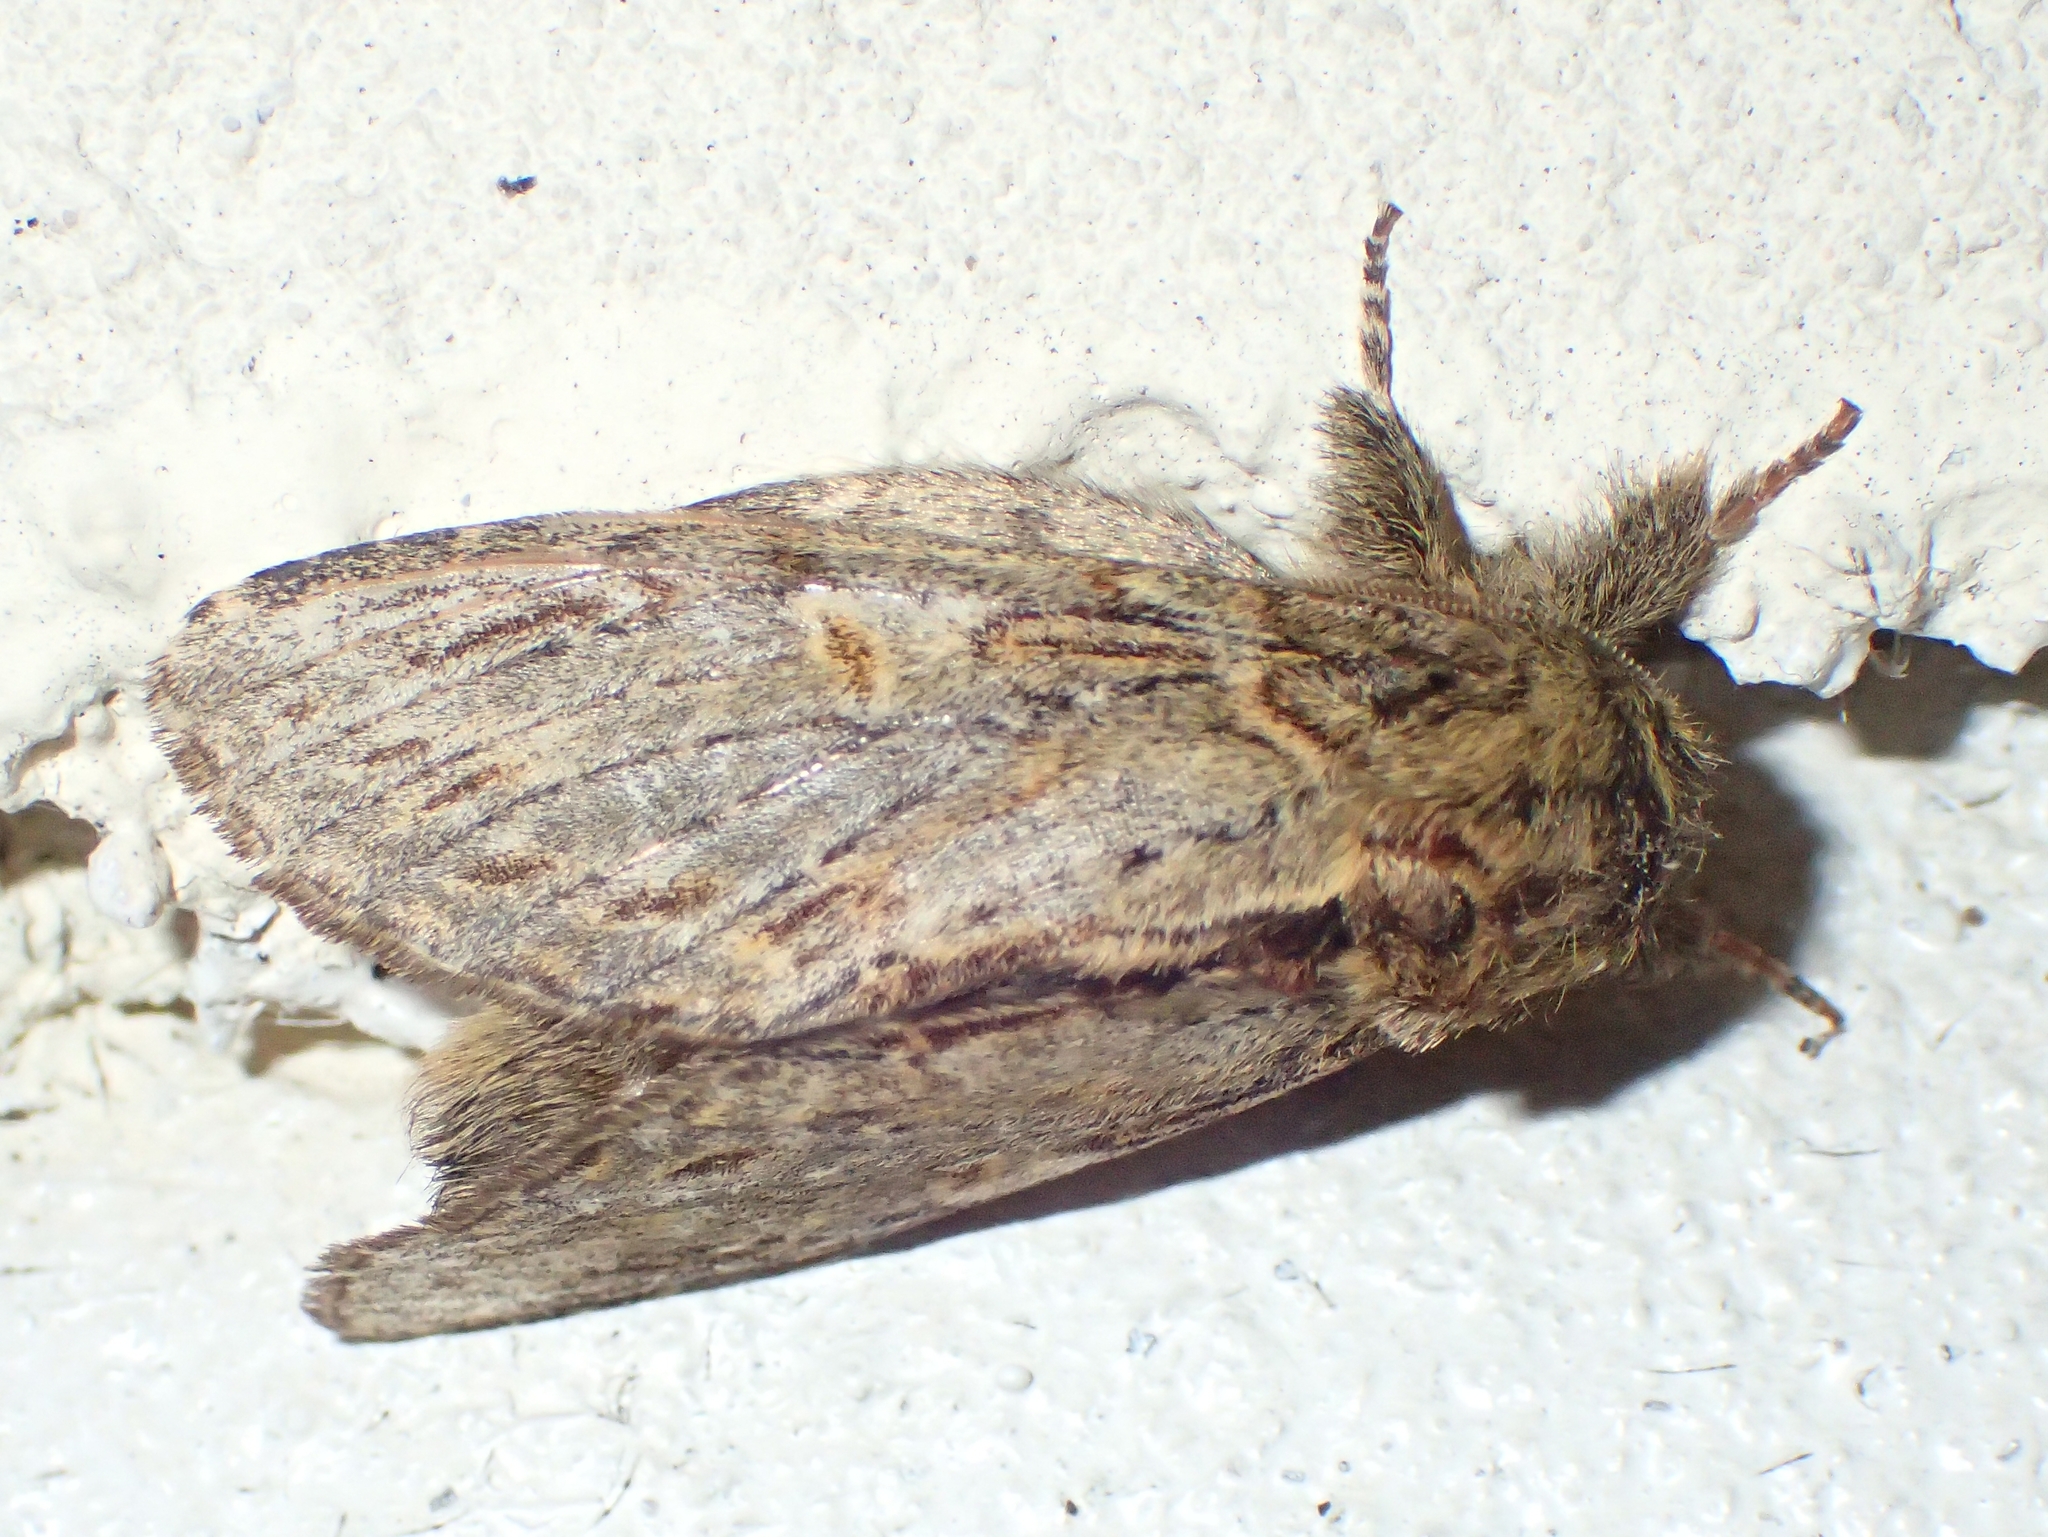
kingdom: Animalia
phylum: Arthropoda
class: Insecta
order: Lepidoptera
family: Notodontidae
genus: Peridea
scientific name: Peridea anceps
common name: Great prominent
